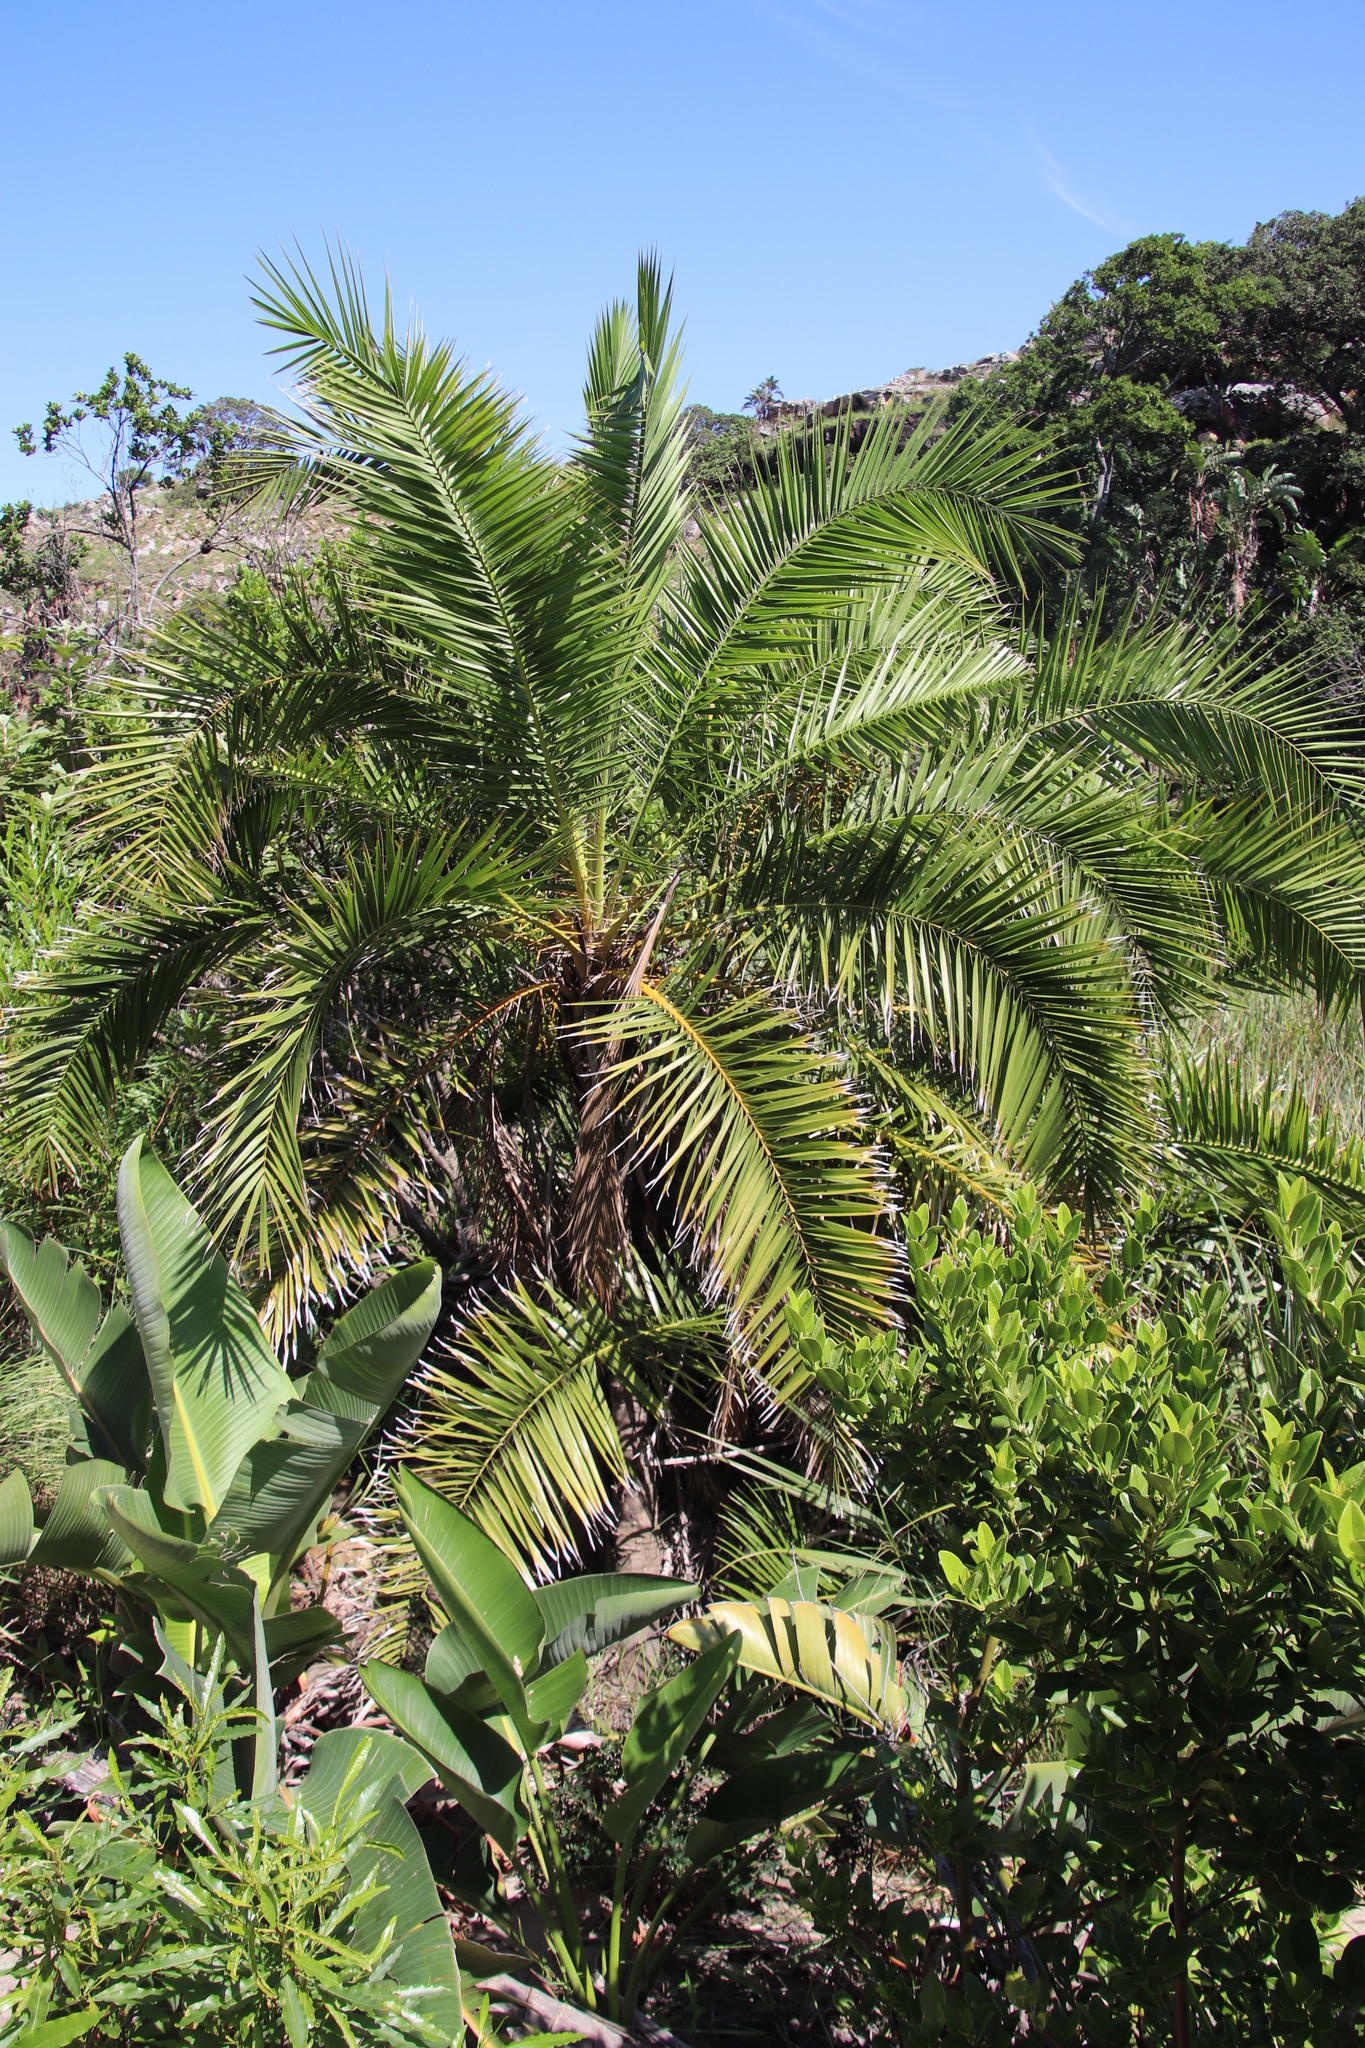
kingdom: Plantae
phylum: Tracheophyta
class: Liliopsida
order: Arecales
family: Arecaceae
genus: Phoenix
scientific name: Phoenix reclinata
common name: Senegal date palm
